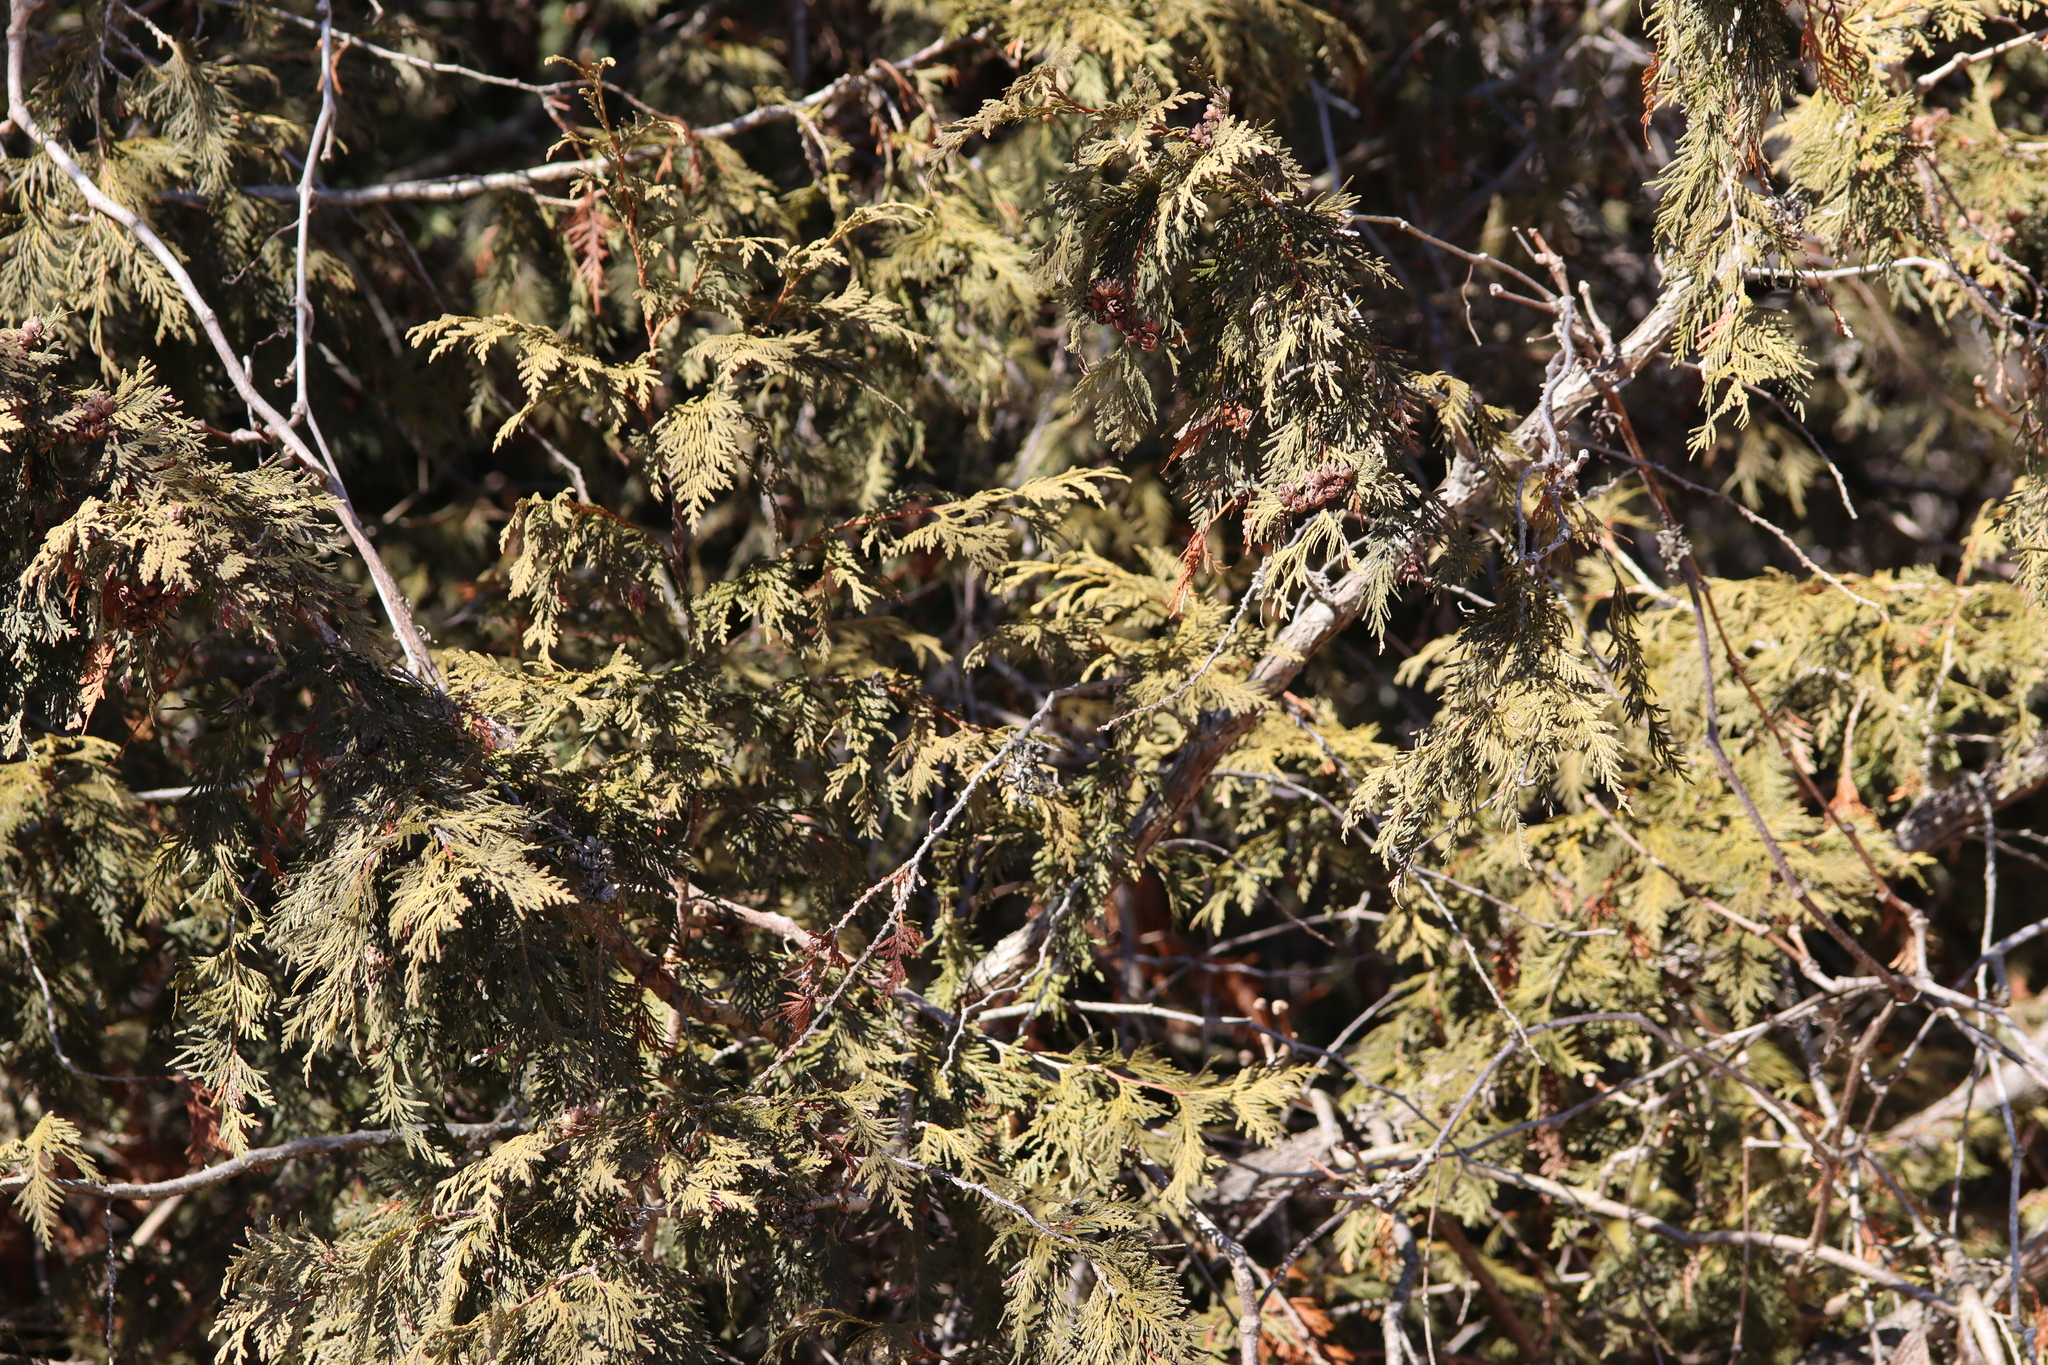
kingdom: Plantae
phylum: Tracheophyta
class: Pinopsida
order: Pinales
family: Cupressaceae
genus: Thuja
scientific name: Thuja occidentalis
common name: Northern white-cedar
